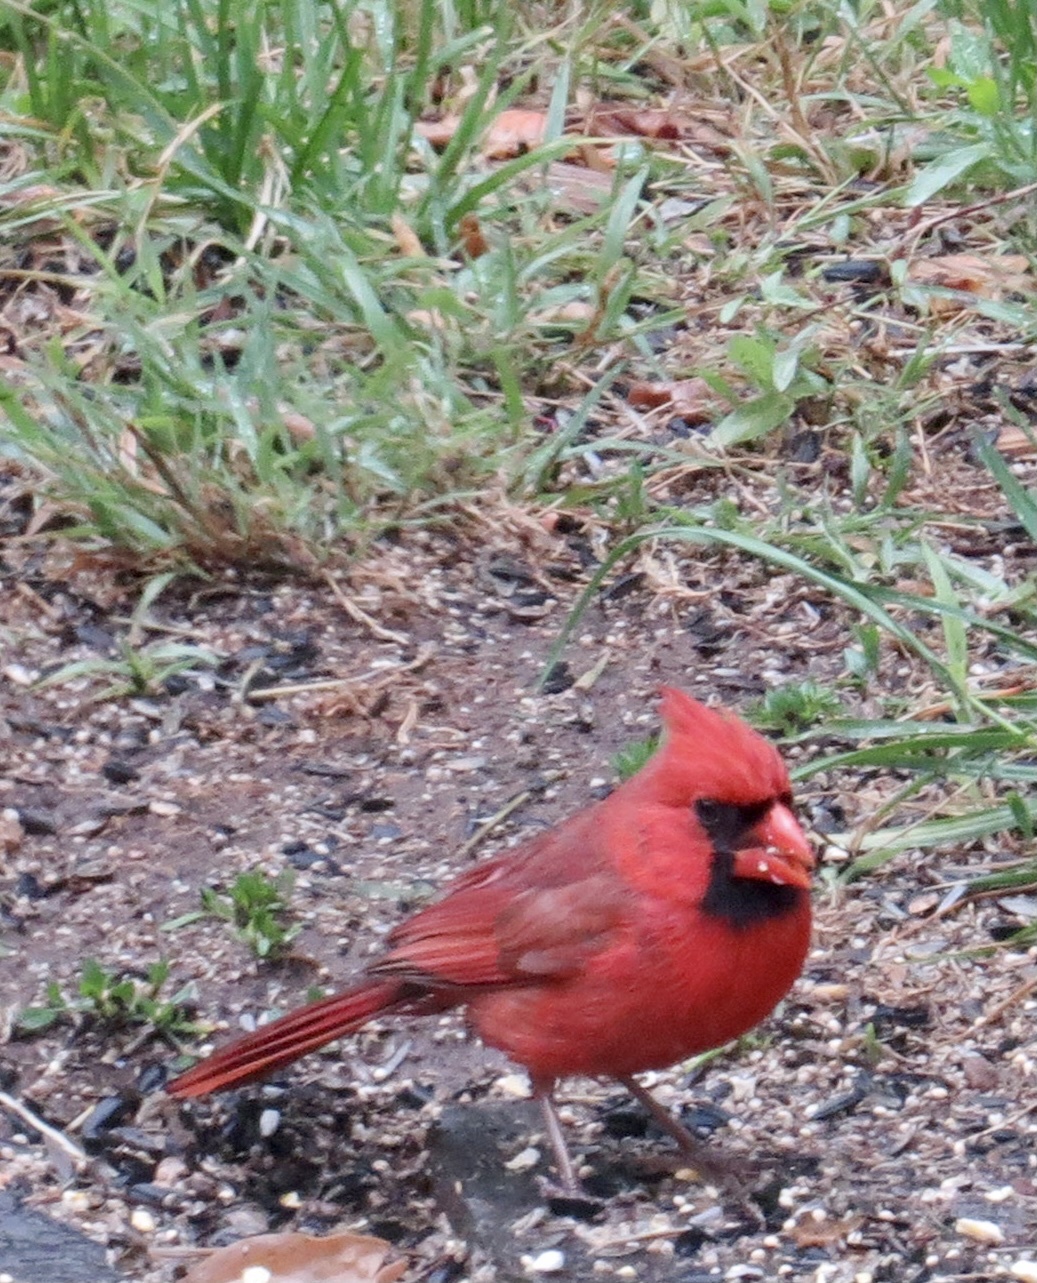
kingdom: Animalia
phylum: Chordata
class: Aves
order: Passeriformes
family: Cardinalidae
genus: Cardinalis
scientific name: Cardinalis cardinalis
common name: Northern cardinal
